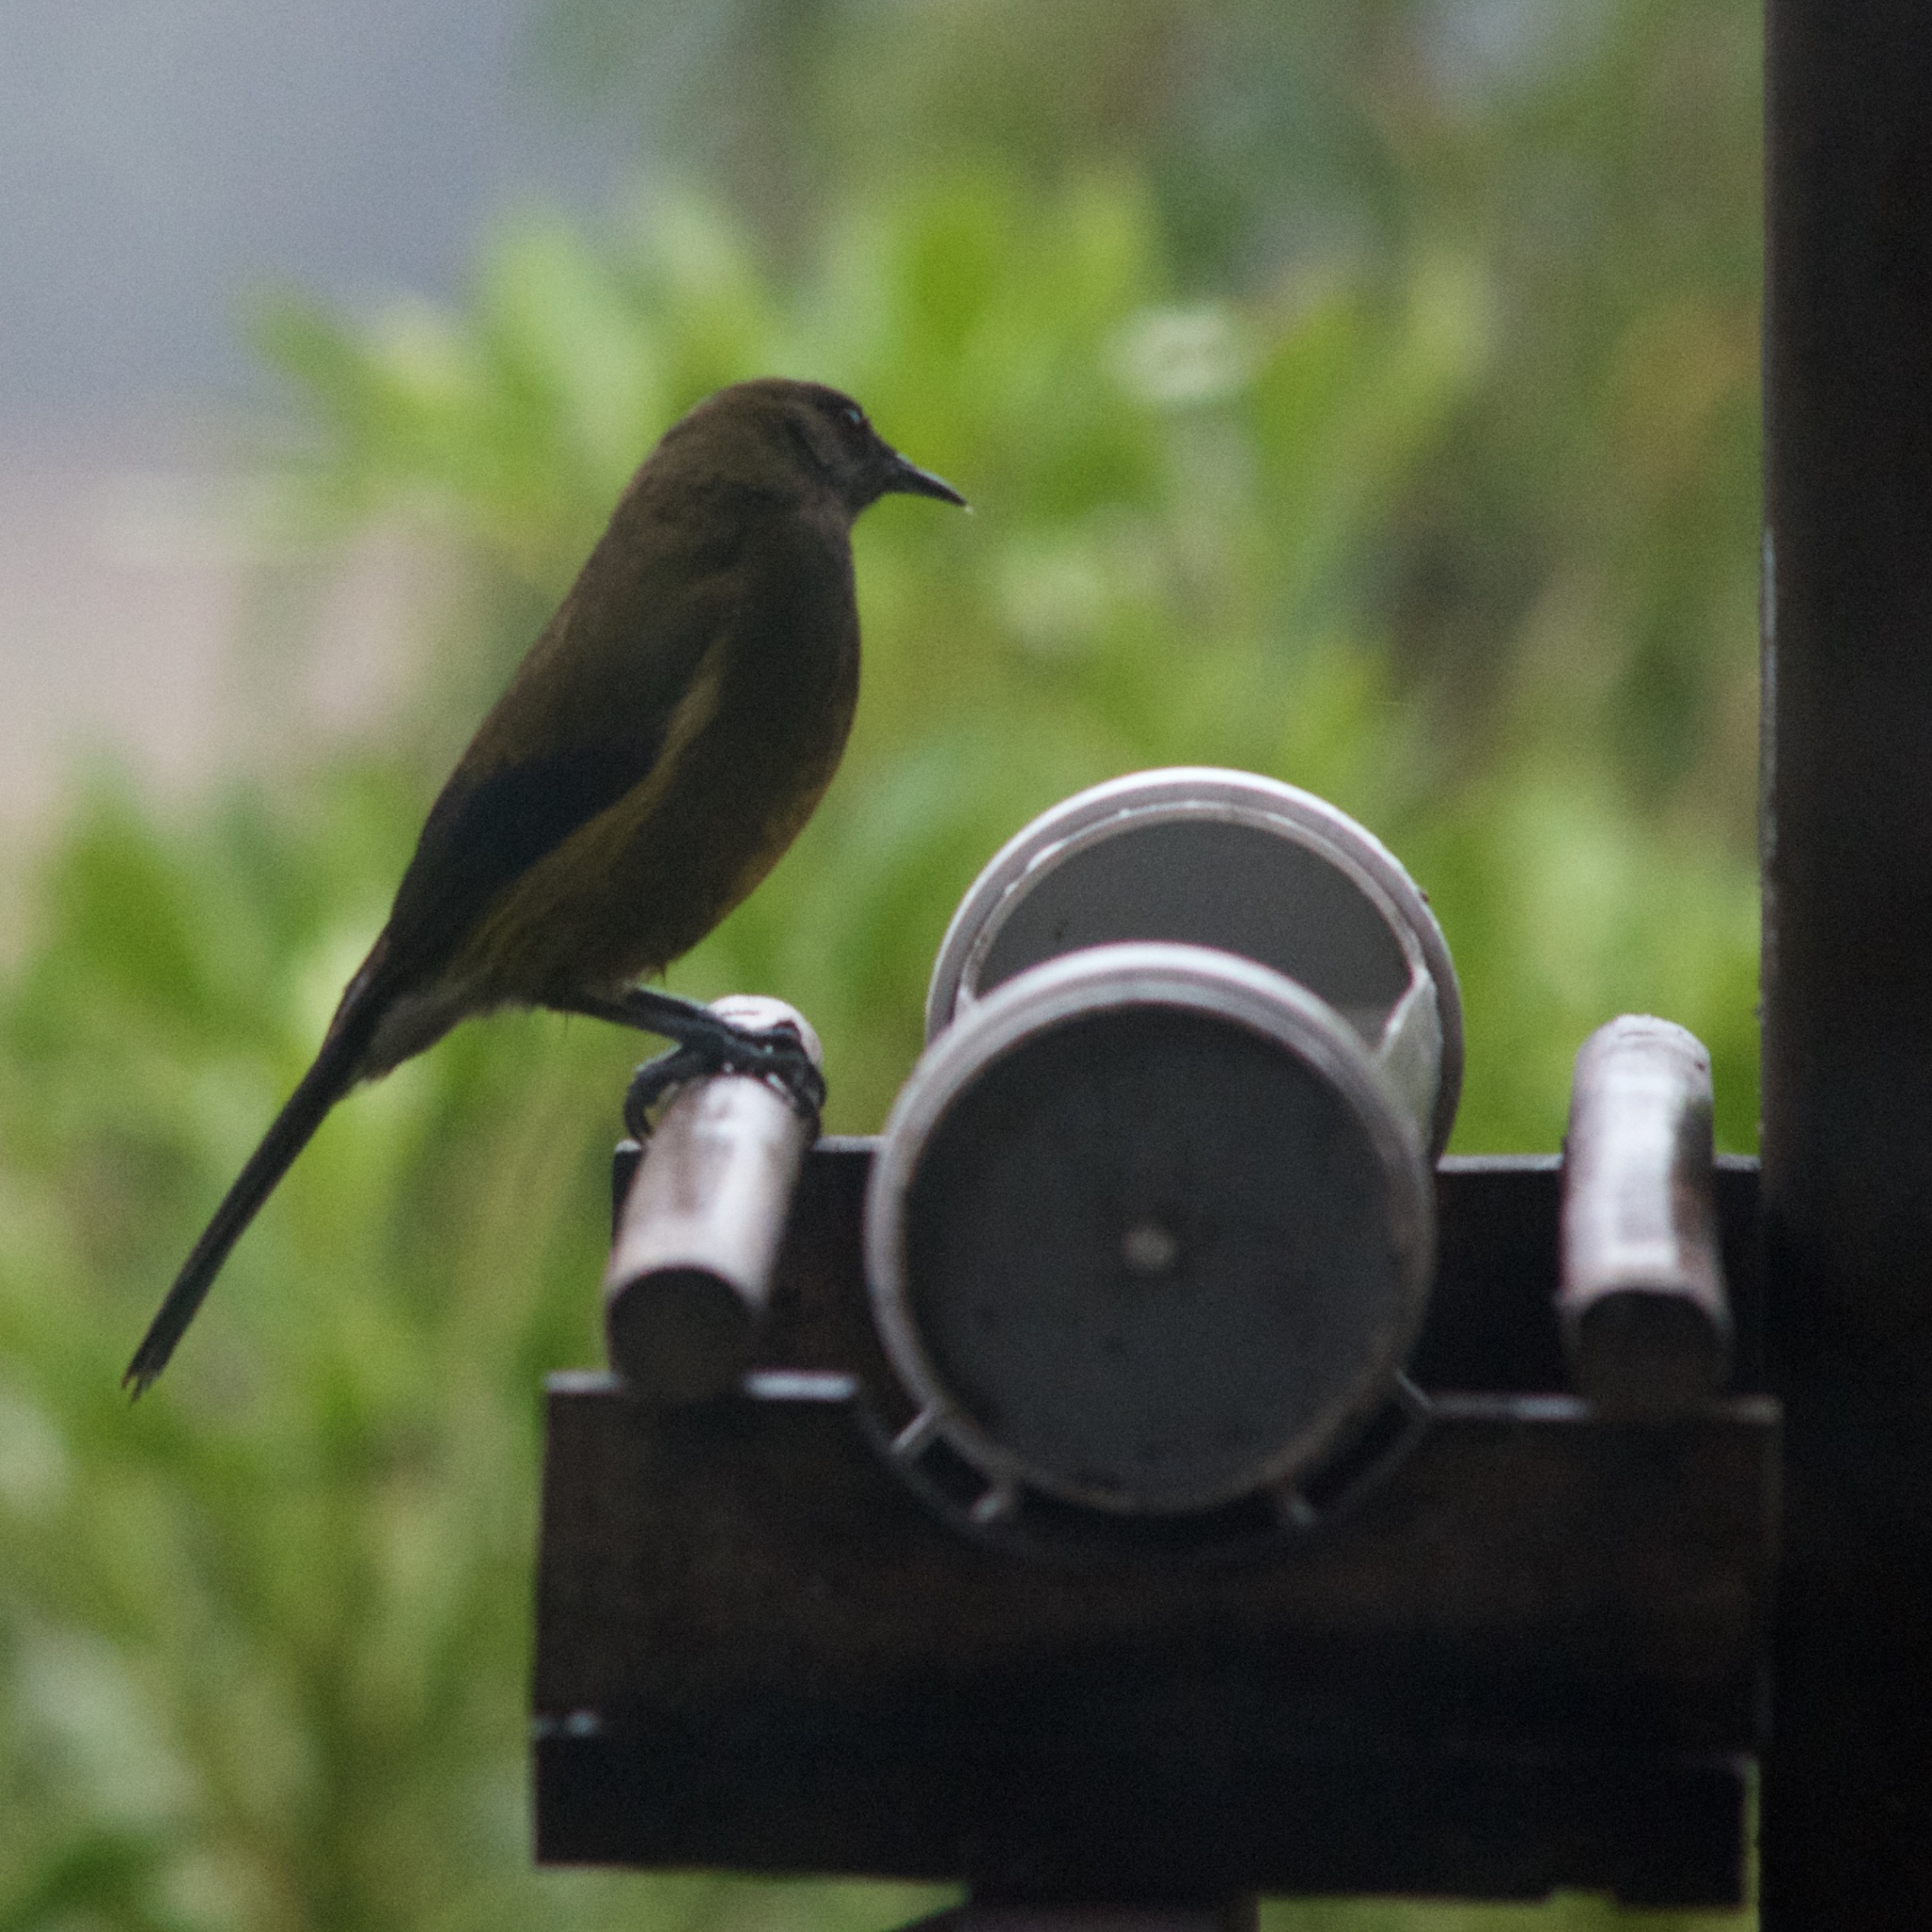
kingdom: Animalia
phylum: Chordata
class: Aves
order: Passeriformes
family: Meliphagidae
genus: Anthornis
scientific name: Anthornis melanura
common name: New zealand bellbird
